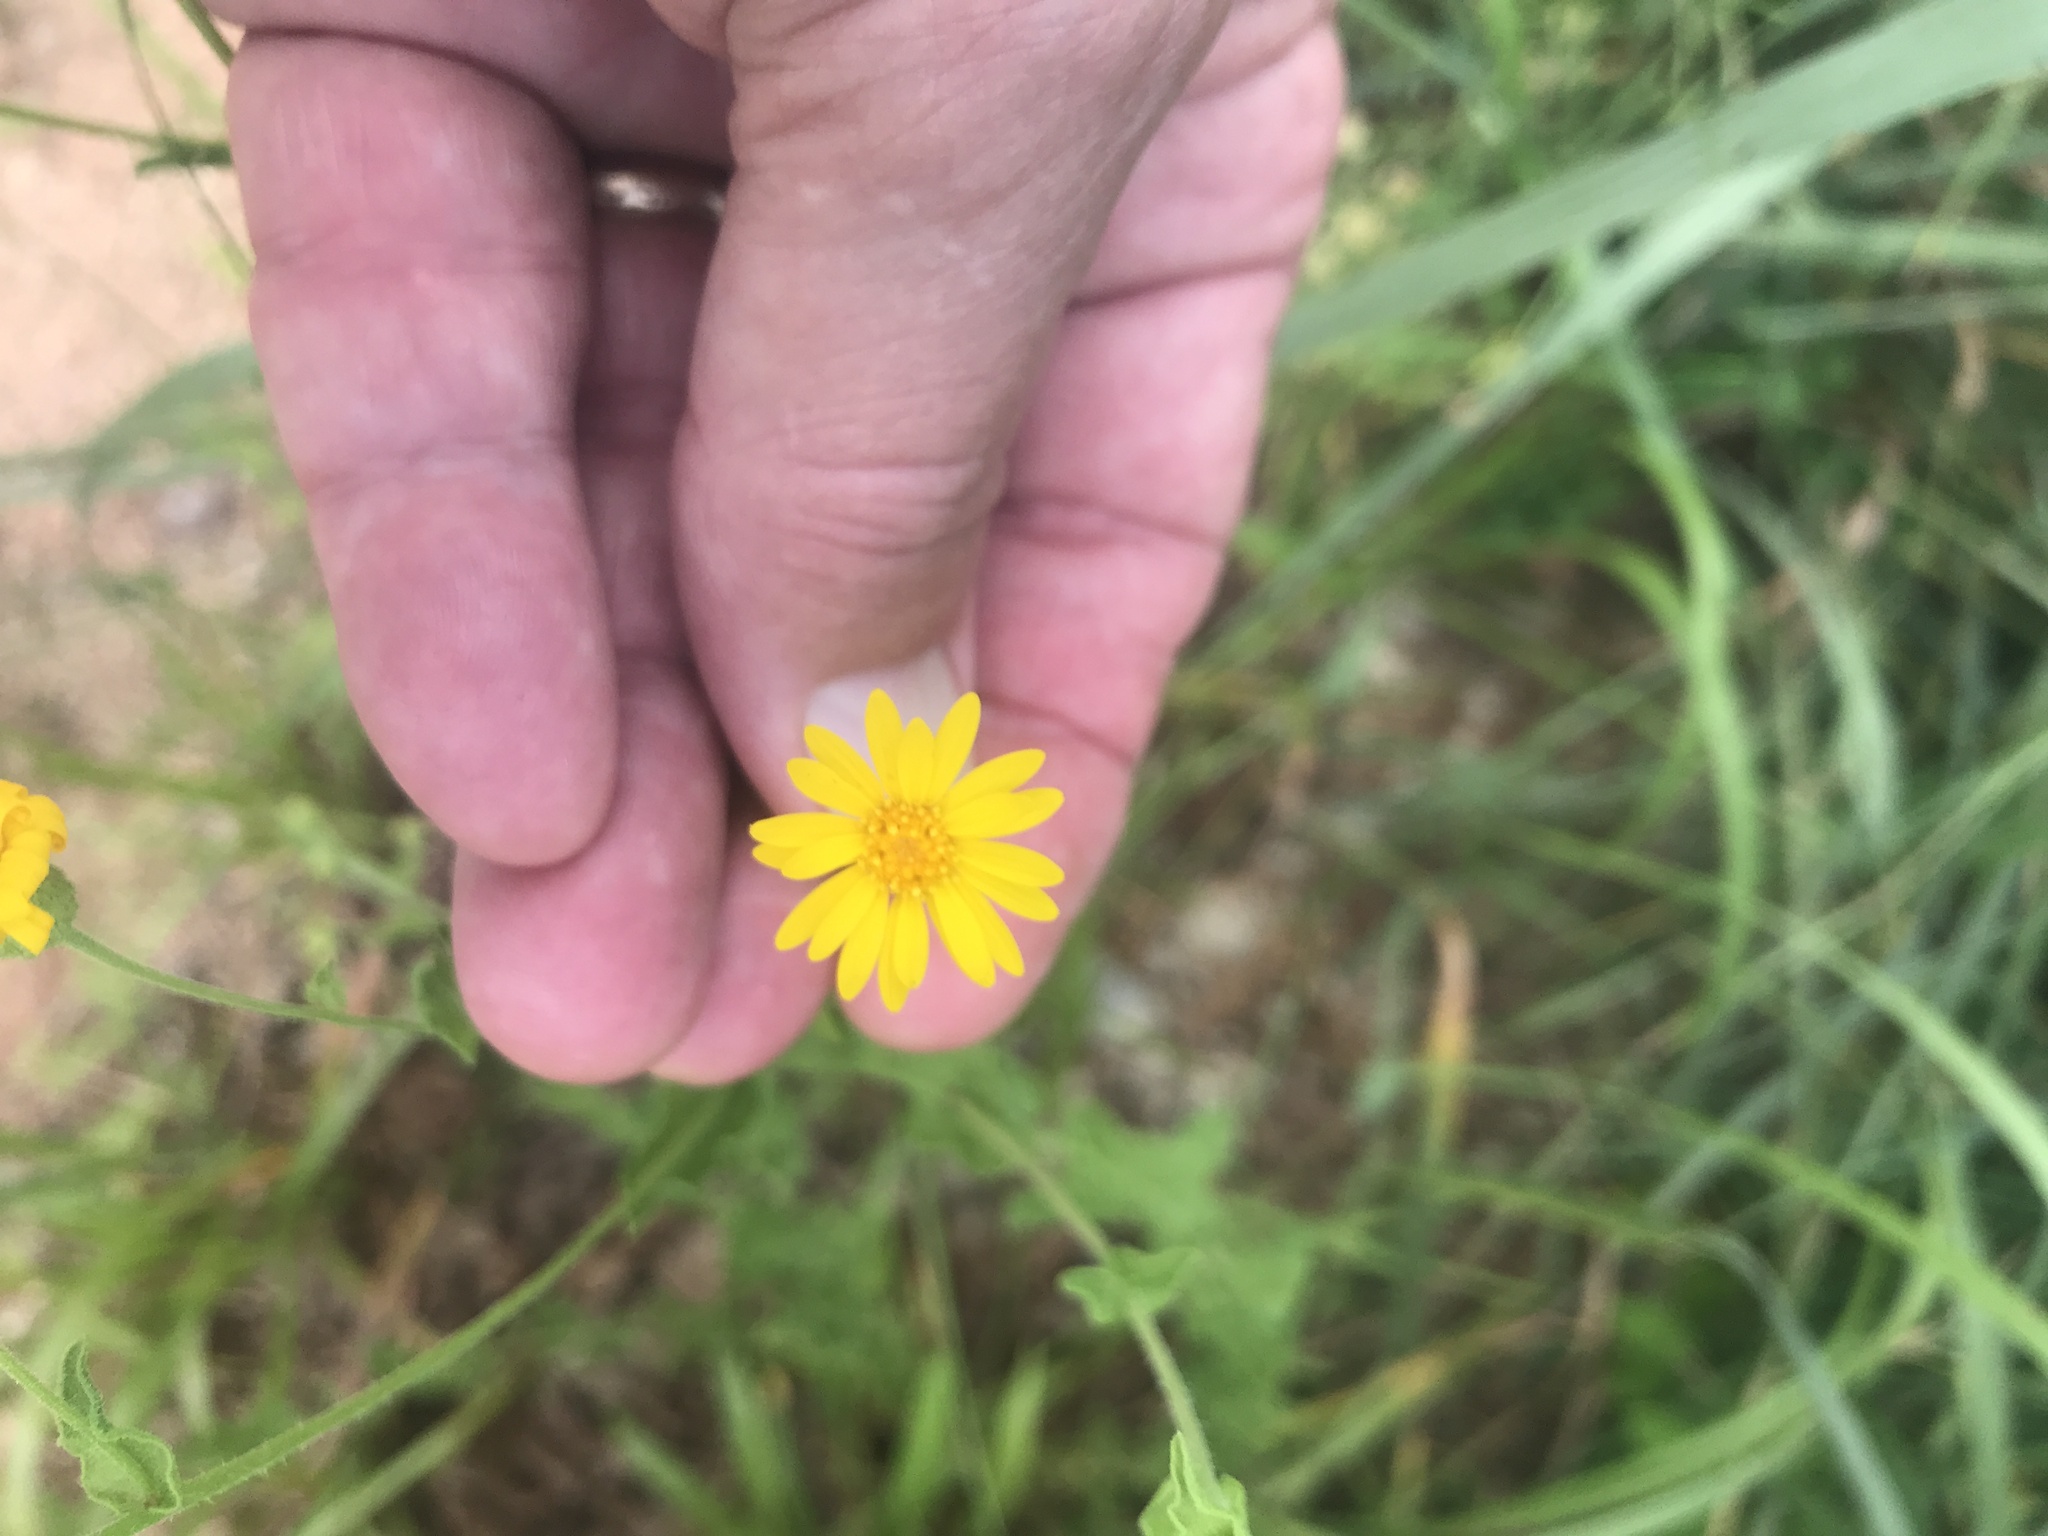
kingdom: Plantae
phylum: Tracheophyta
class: Magnoliopsida
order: Asterales
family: Asteraceae
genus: Heterotheca
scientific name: Heterotheca subaxillaris
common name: Camphorweed
